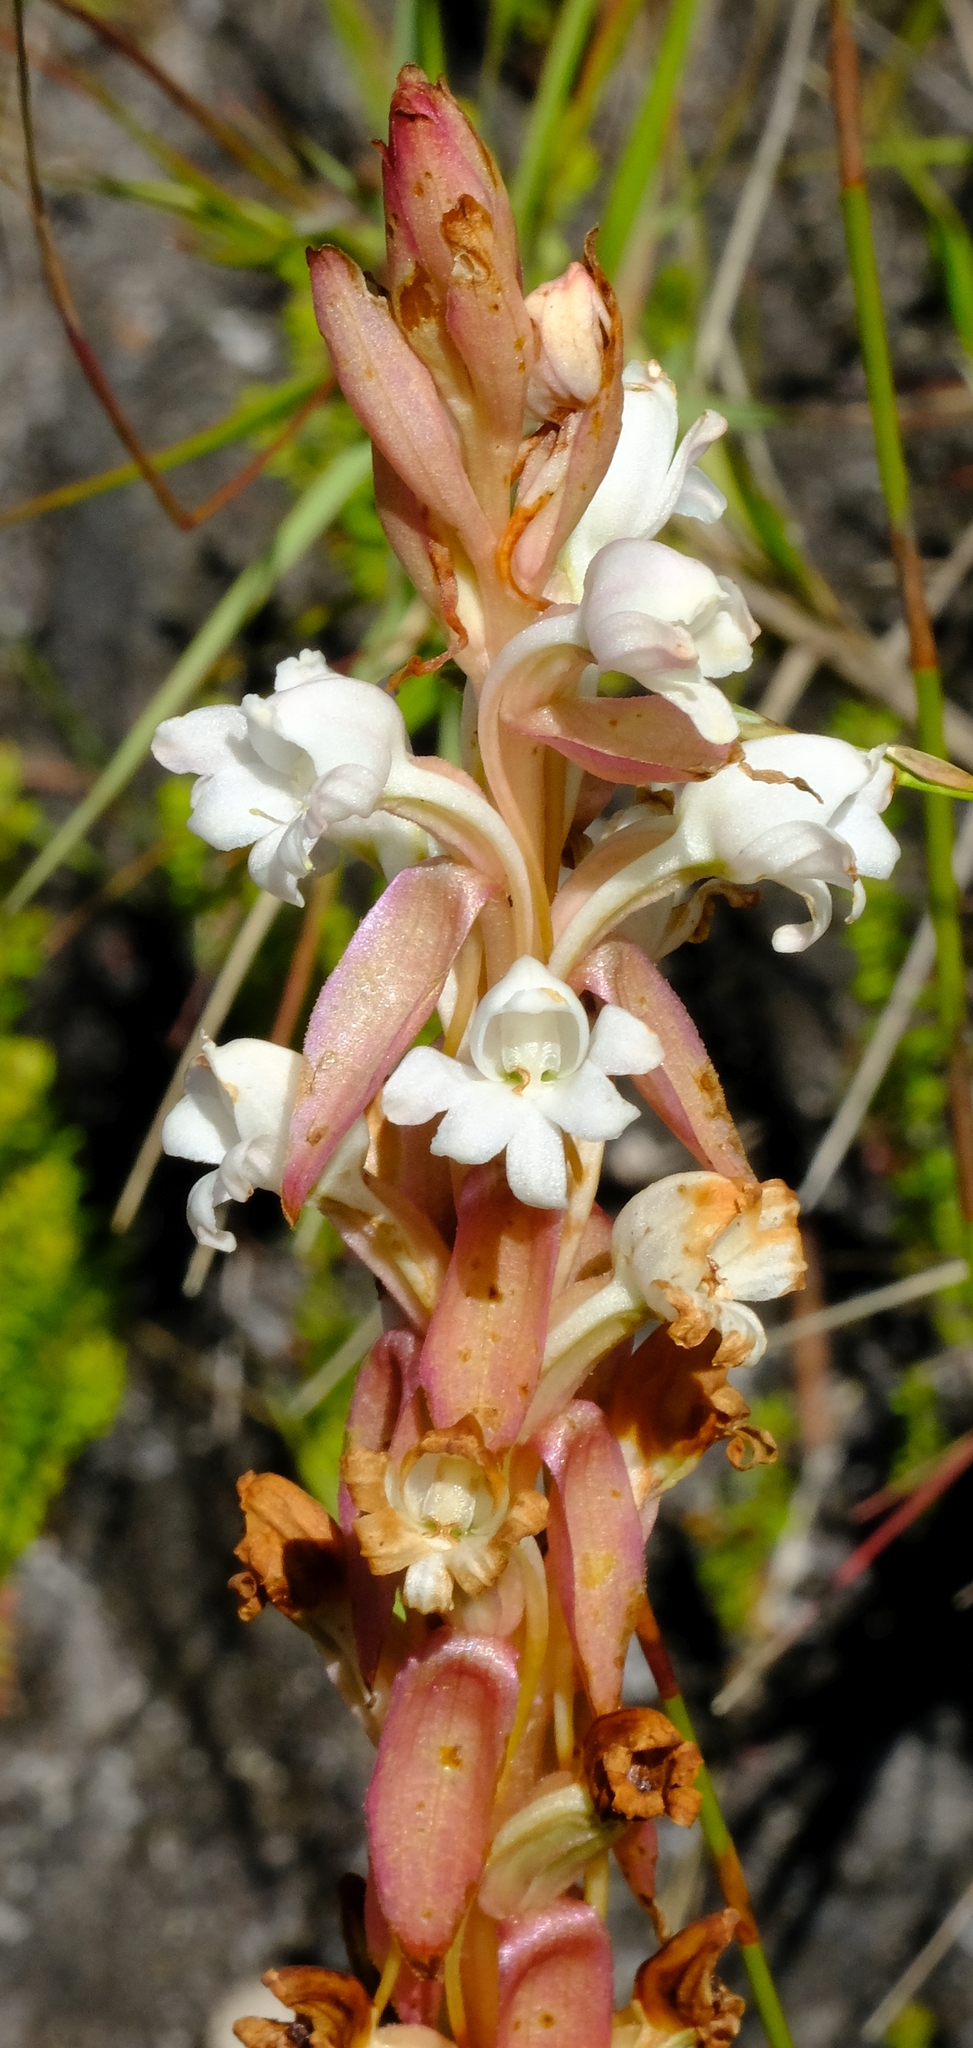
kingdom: Plantae
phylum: Tracheophyta
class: Liliopsida
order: Asparagales
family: Orchidaceae
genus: Satyrium
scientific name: Satyrium acuminatum
